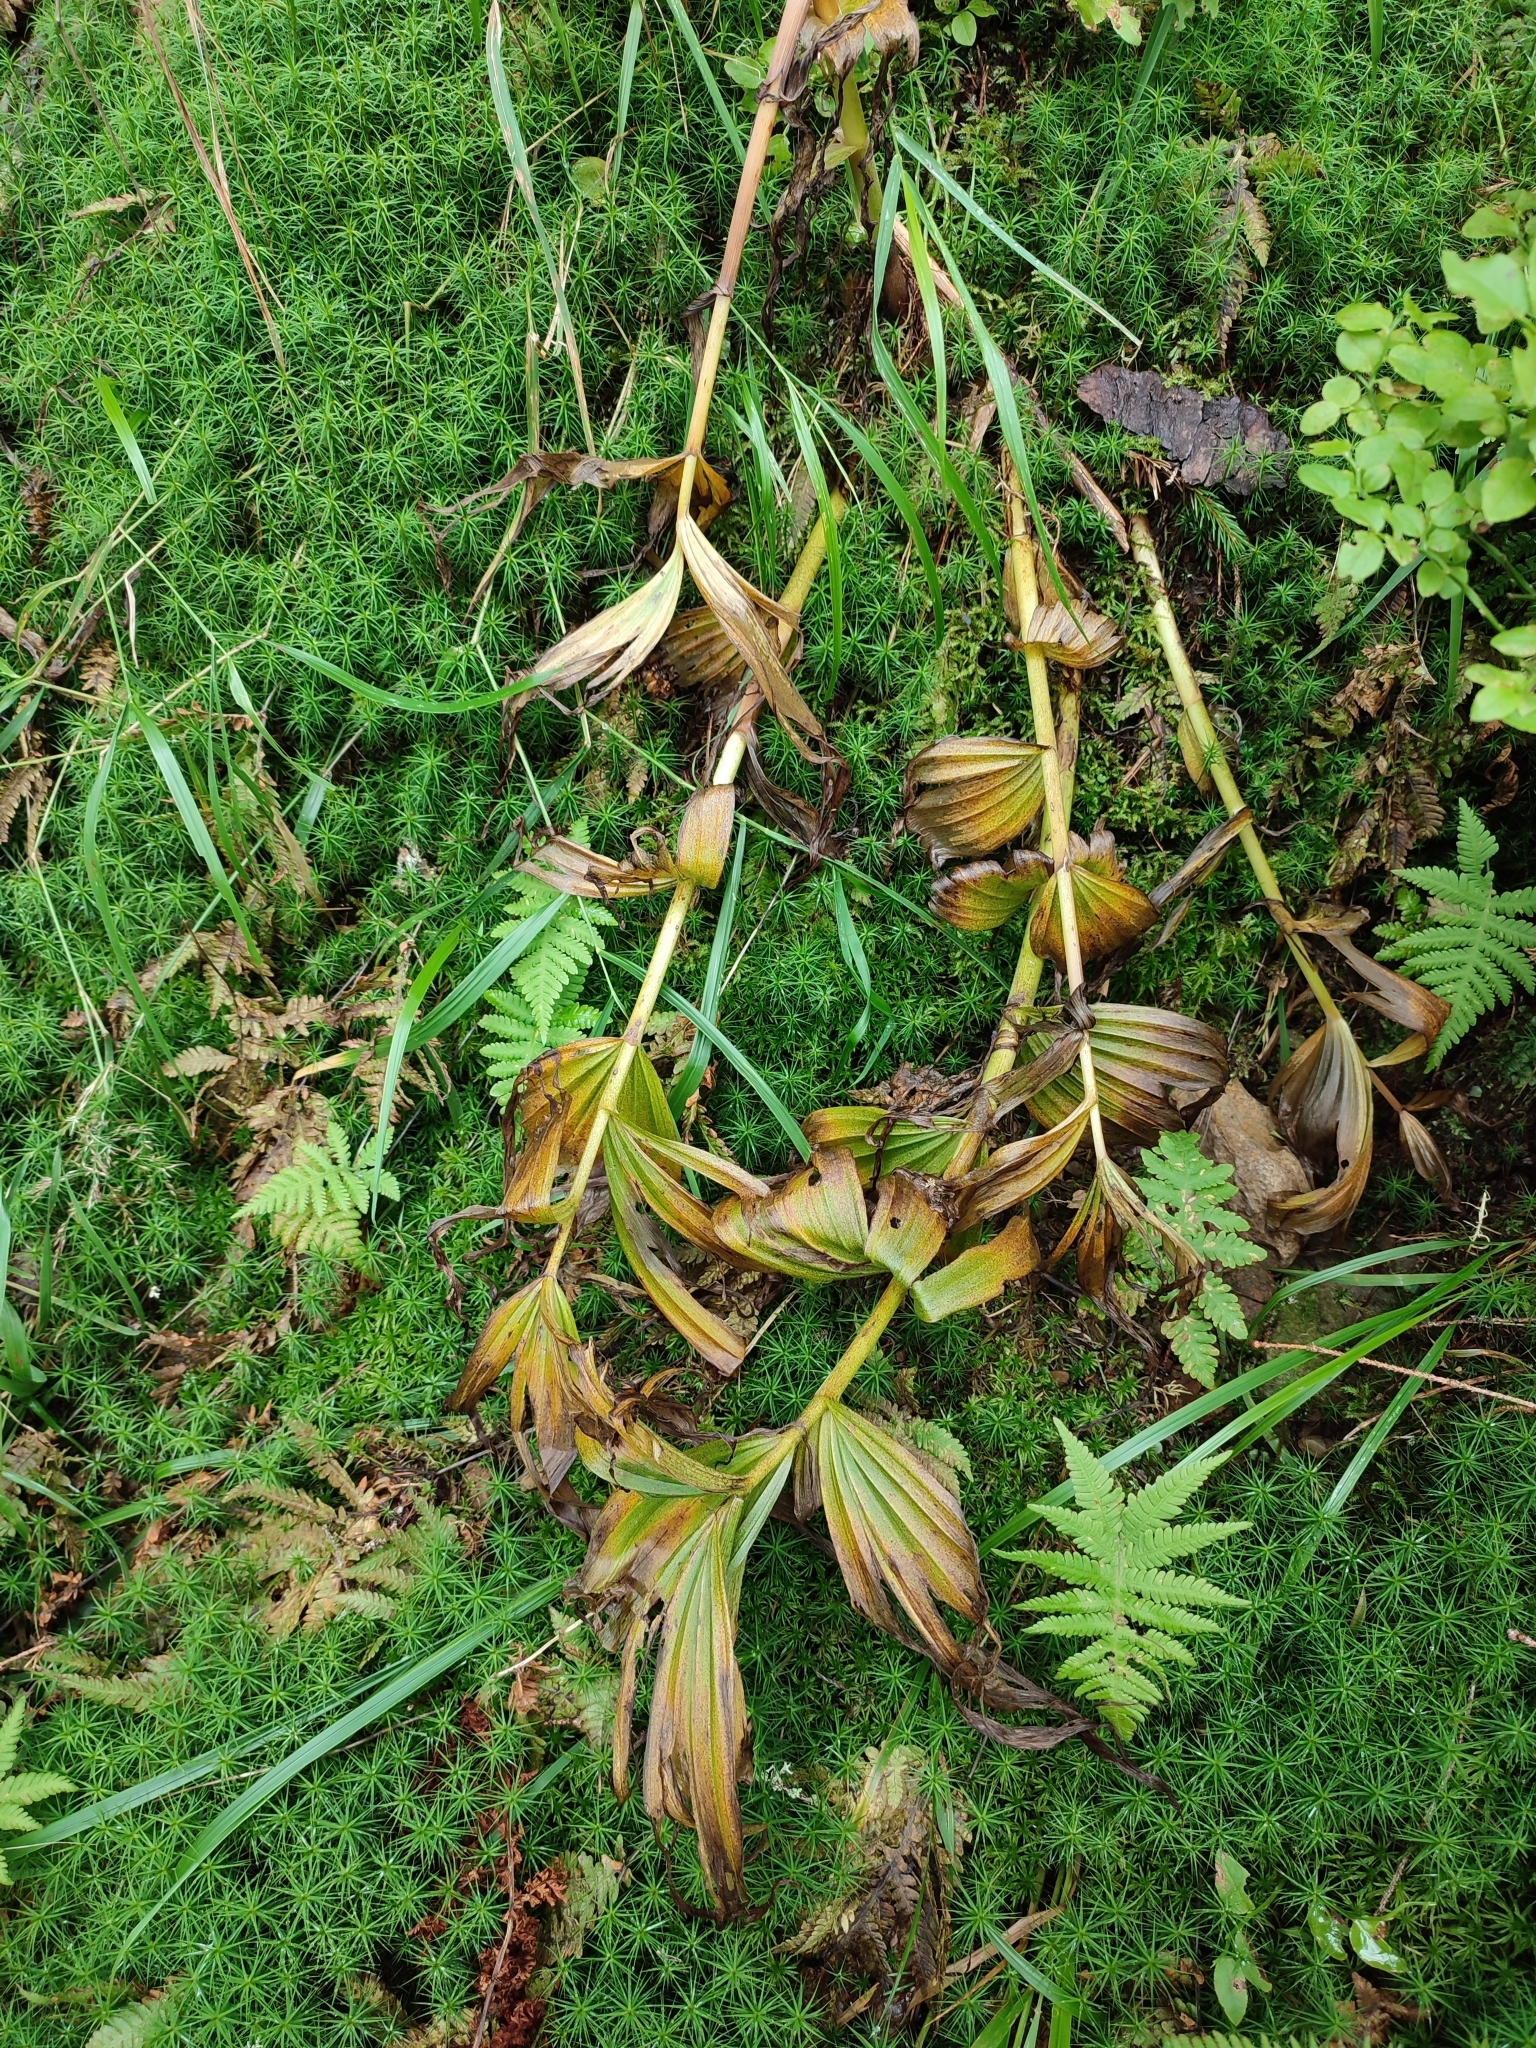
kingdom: Plantae
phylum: Tracheophyta
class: Liliopsida
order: Liliales
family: Melanthiaceae
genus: Veratrum
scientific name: Veratrum album
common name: White veratrum
